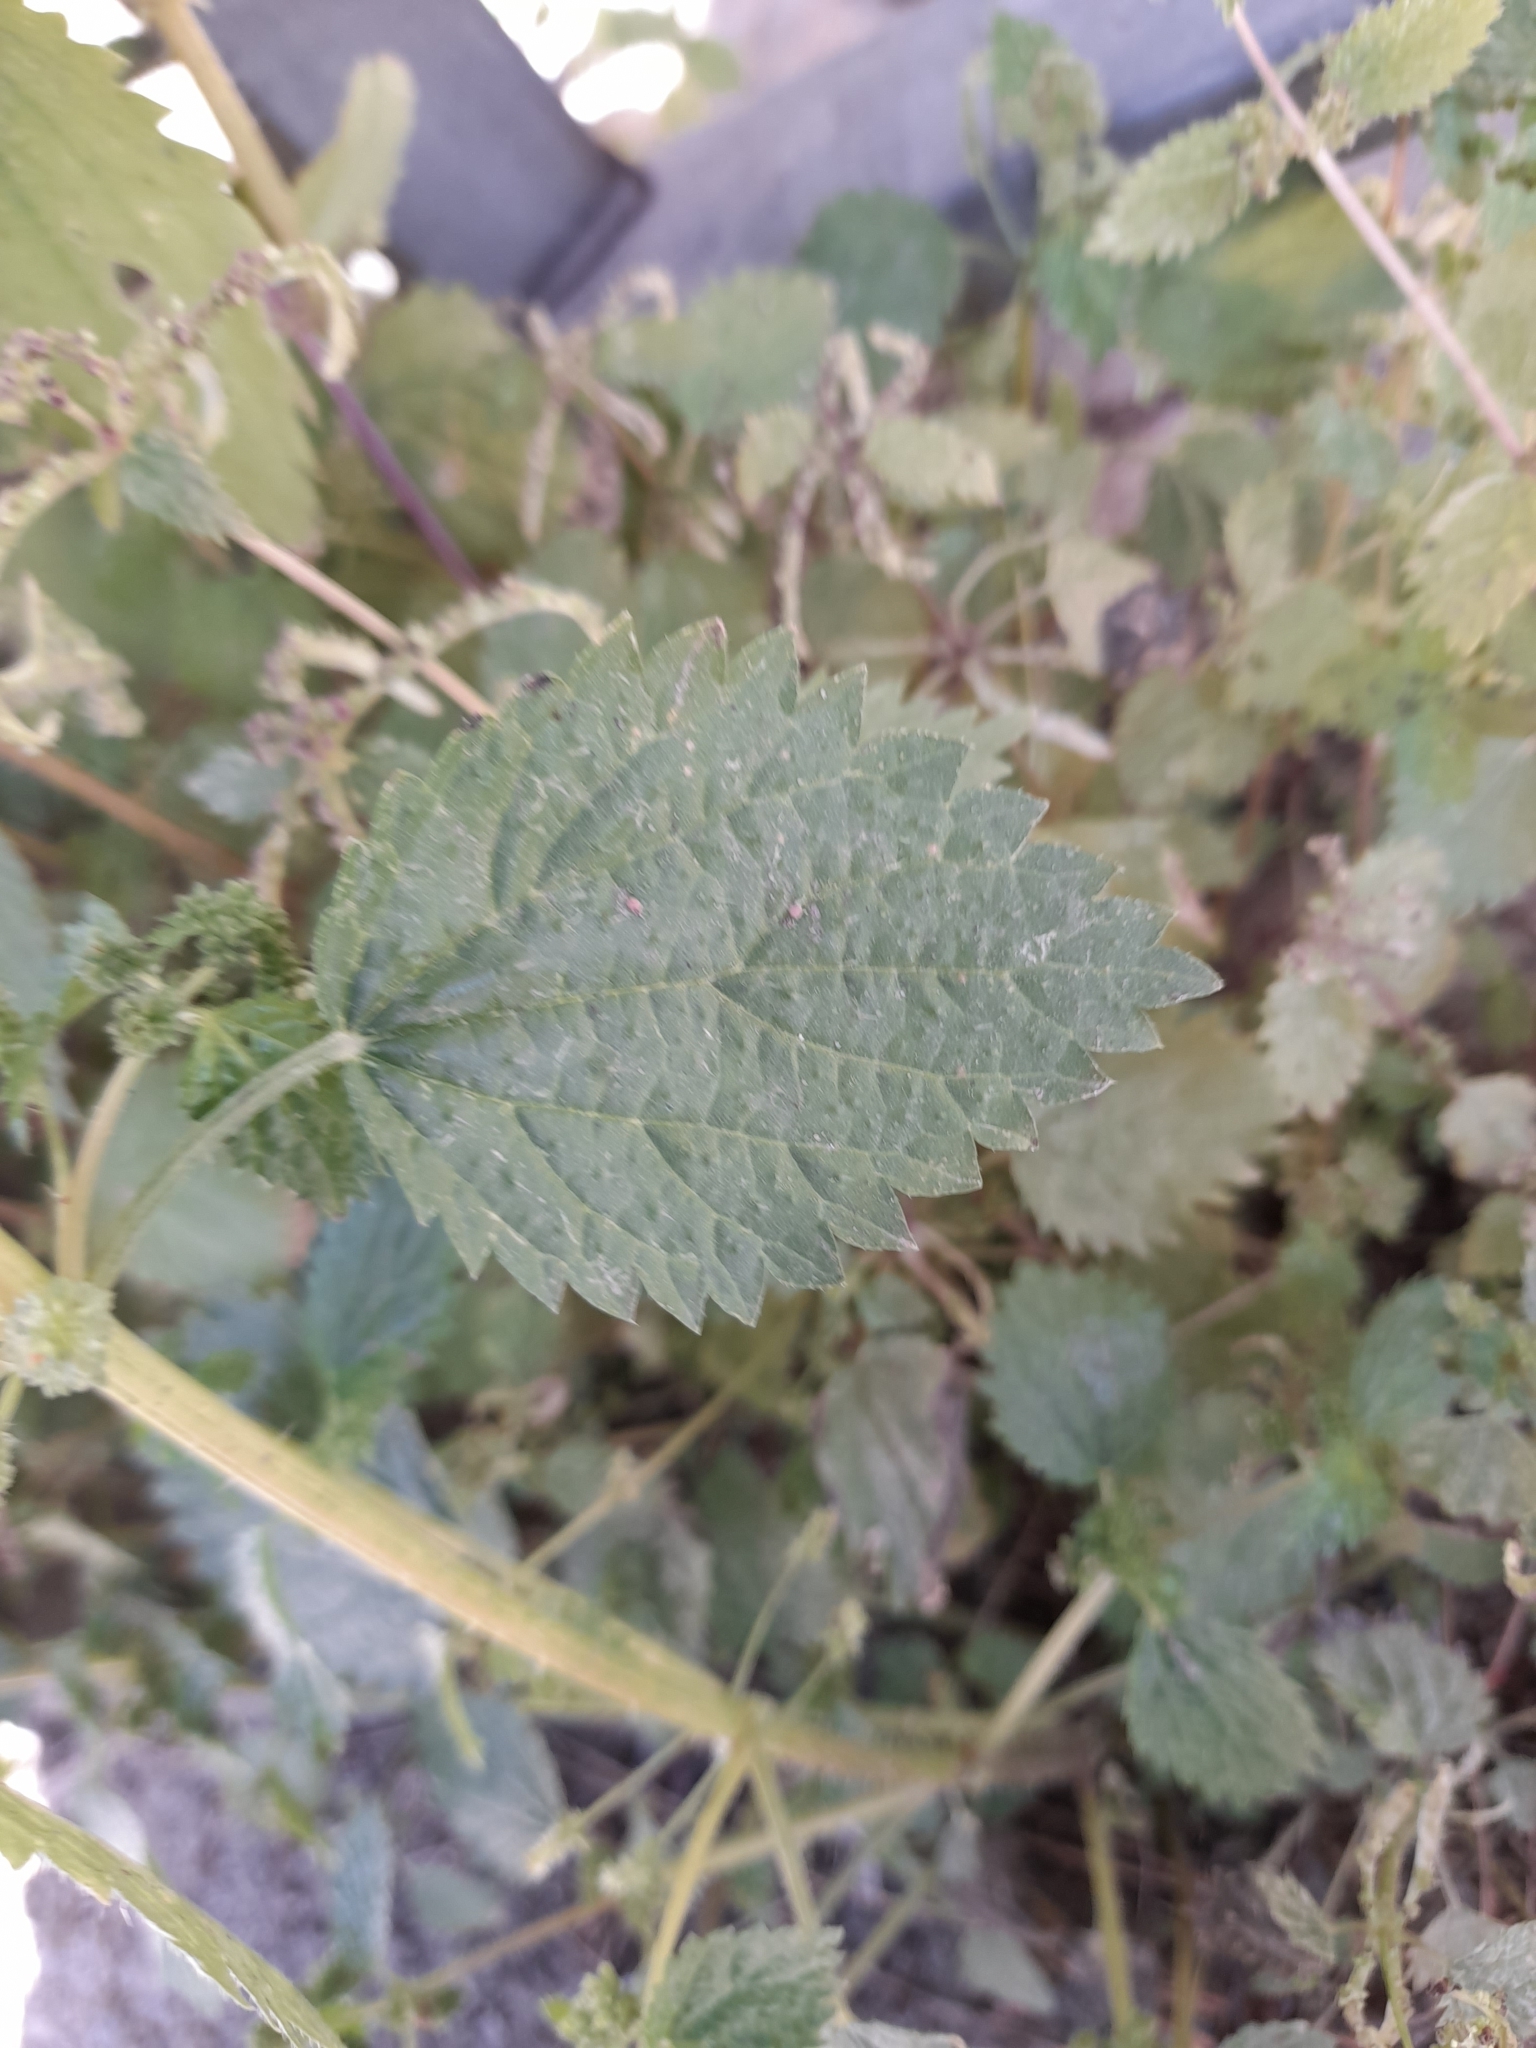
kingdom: Plantae
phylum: Tracheophyta
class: Magnoliopsida
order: Rosales
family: Urticaceae
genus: Urtica
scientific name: Urtica urens
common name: Dwarf nettle
